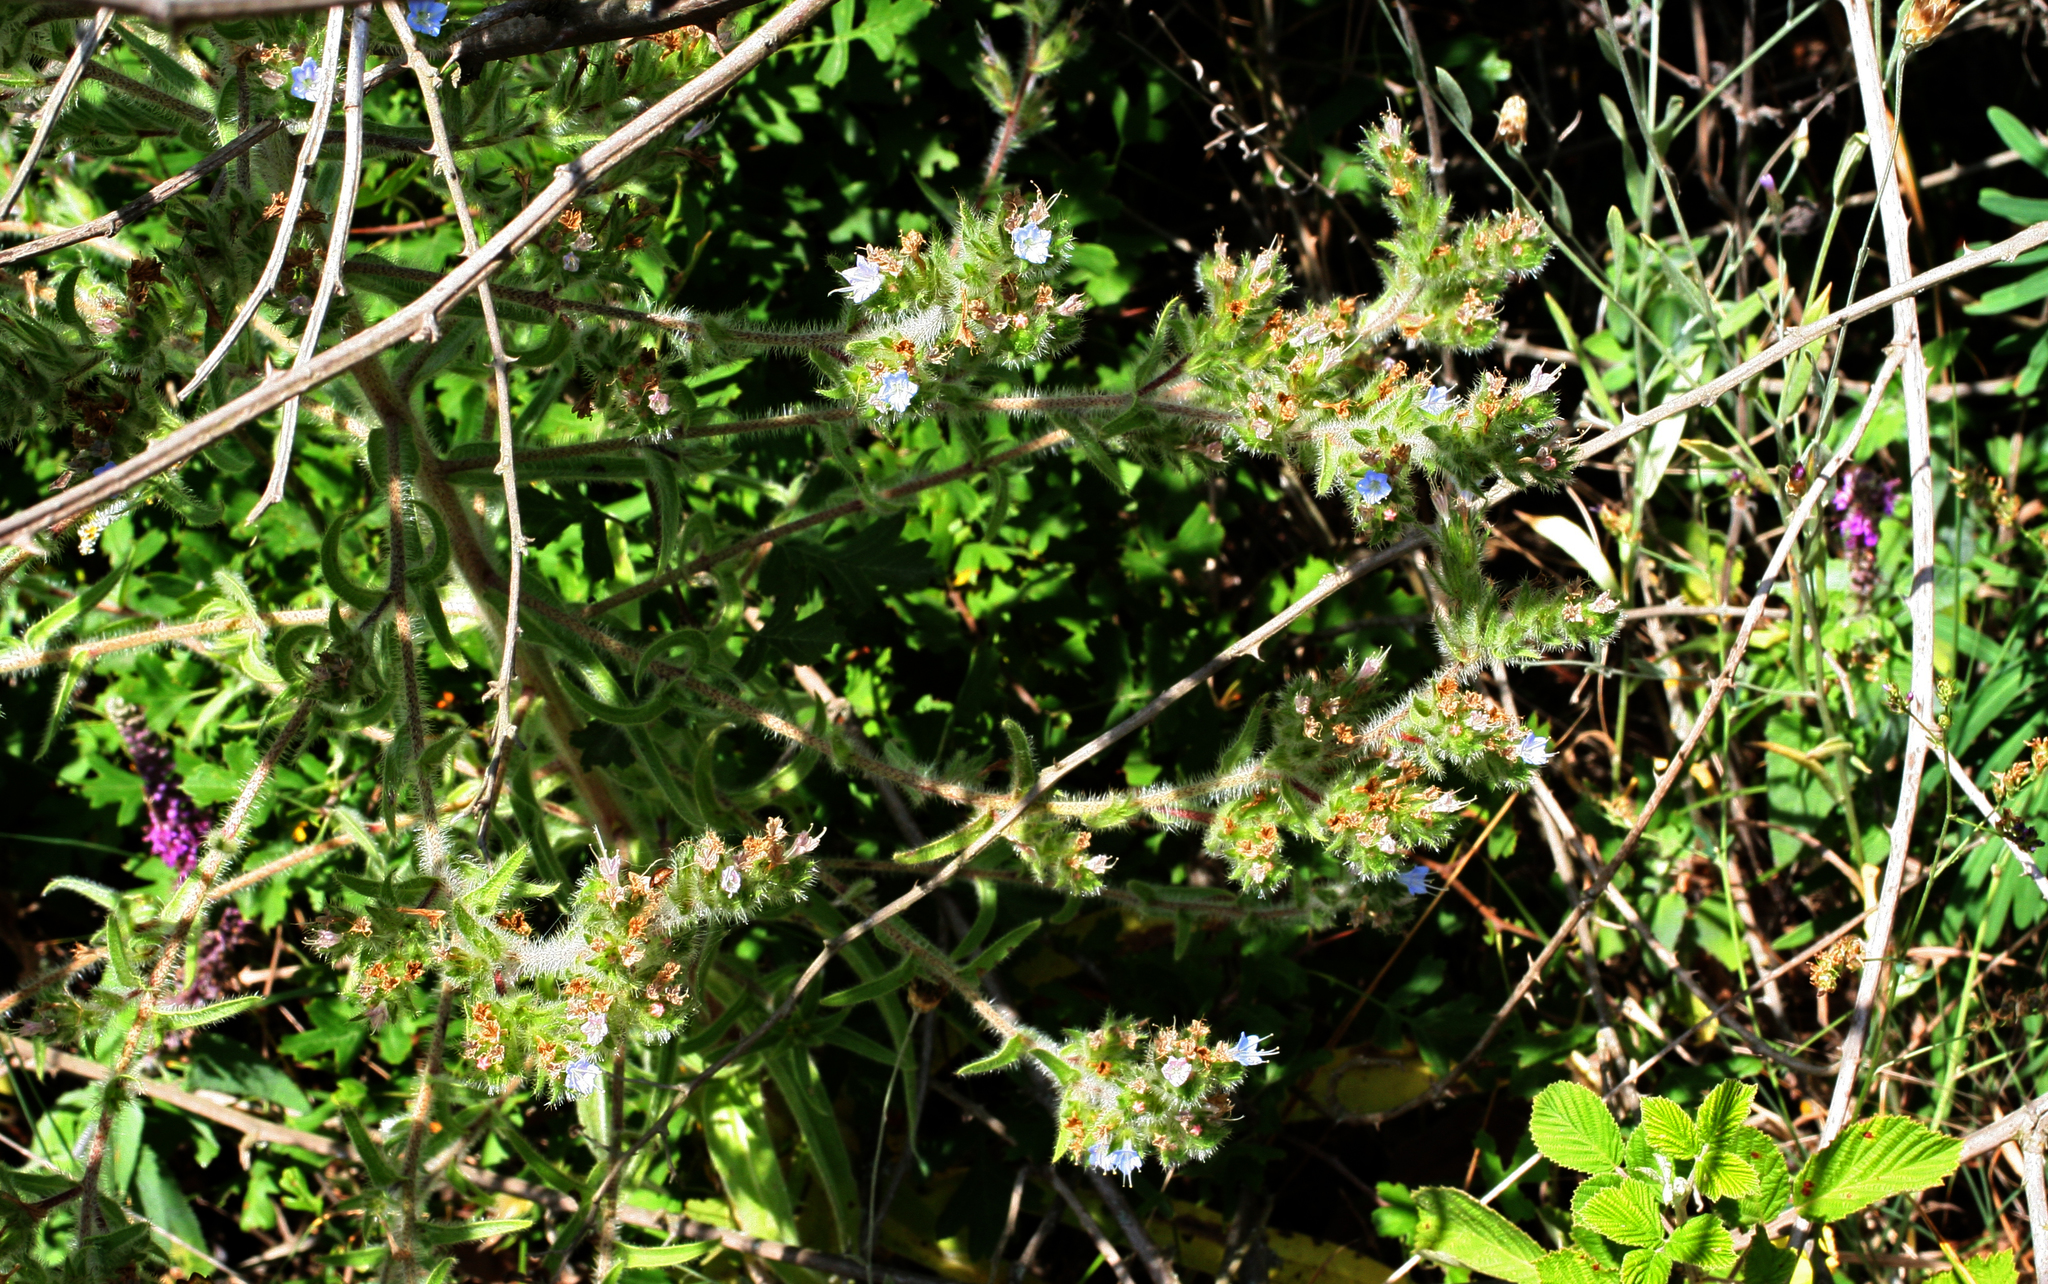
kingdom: Plantae
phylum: Tracheophyta
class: Magnoliopsida
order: Boraginales
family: Boraginaceae
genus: Echium
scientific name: Echium italicum
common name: Italian viper's bugloss
